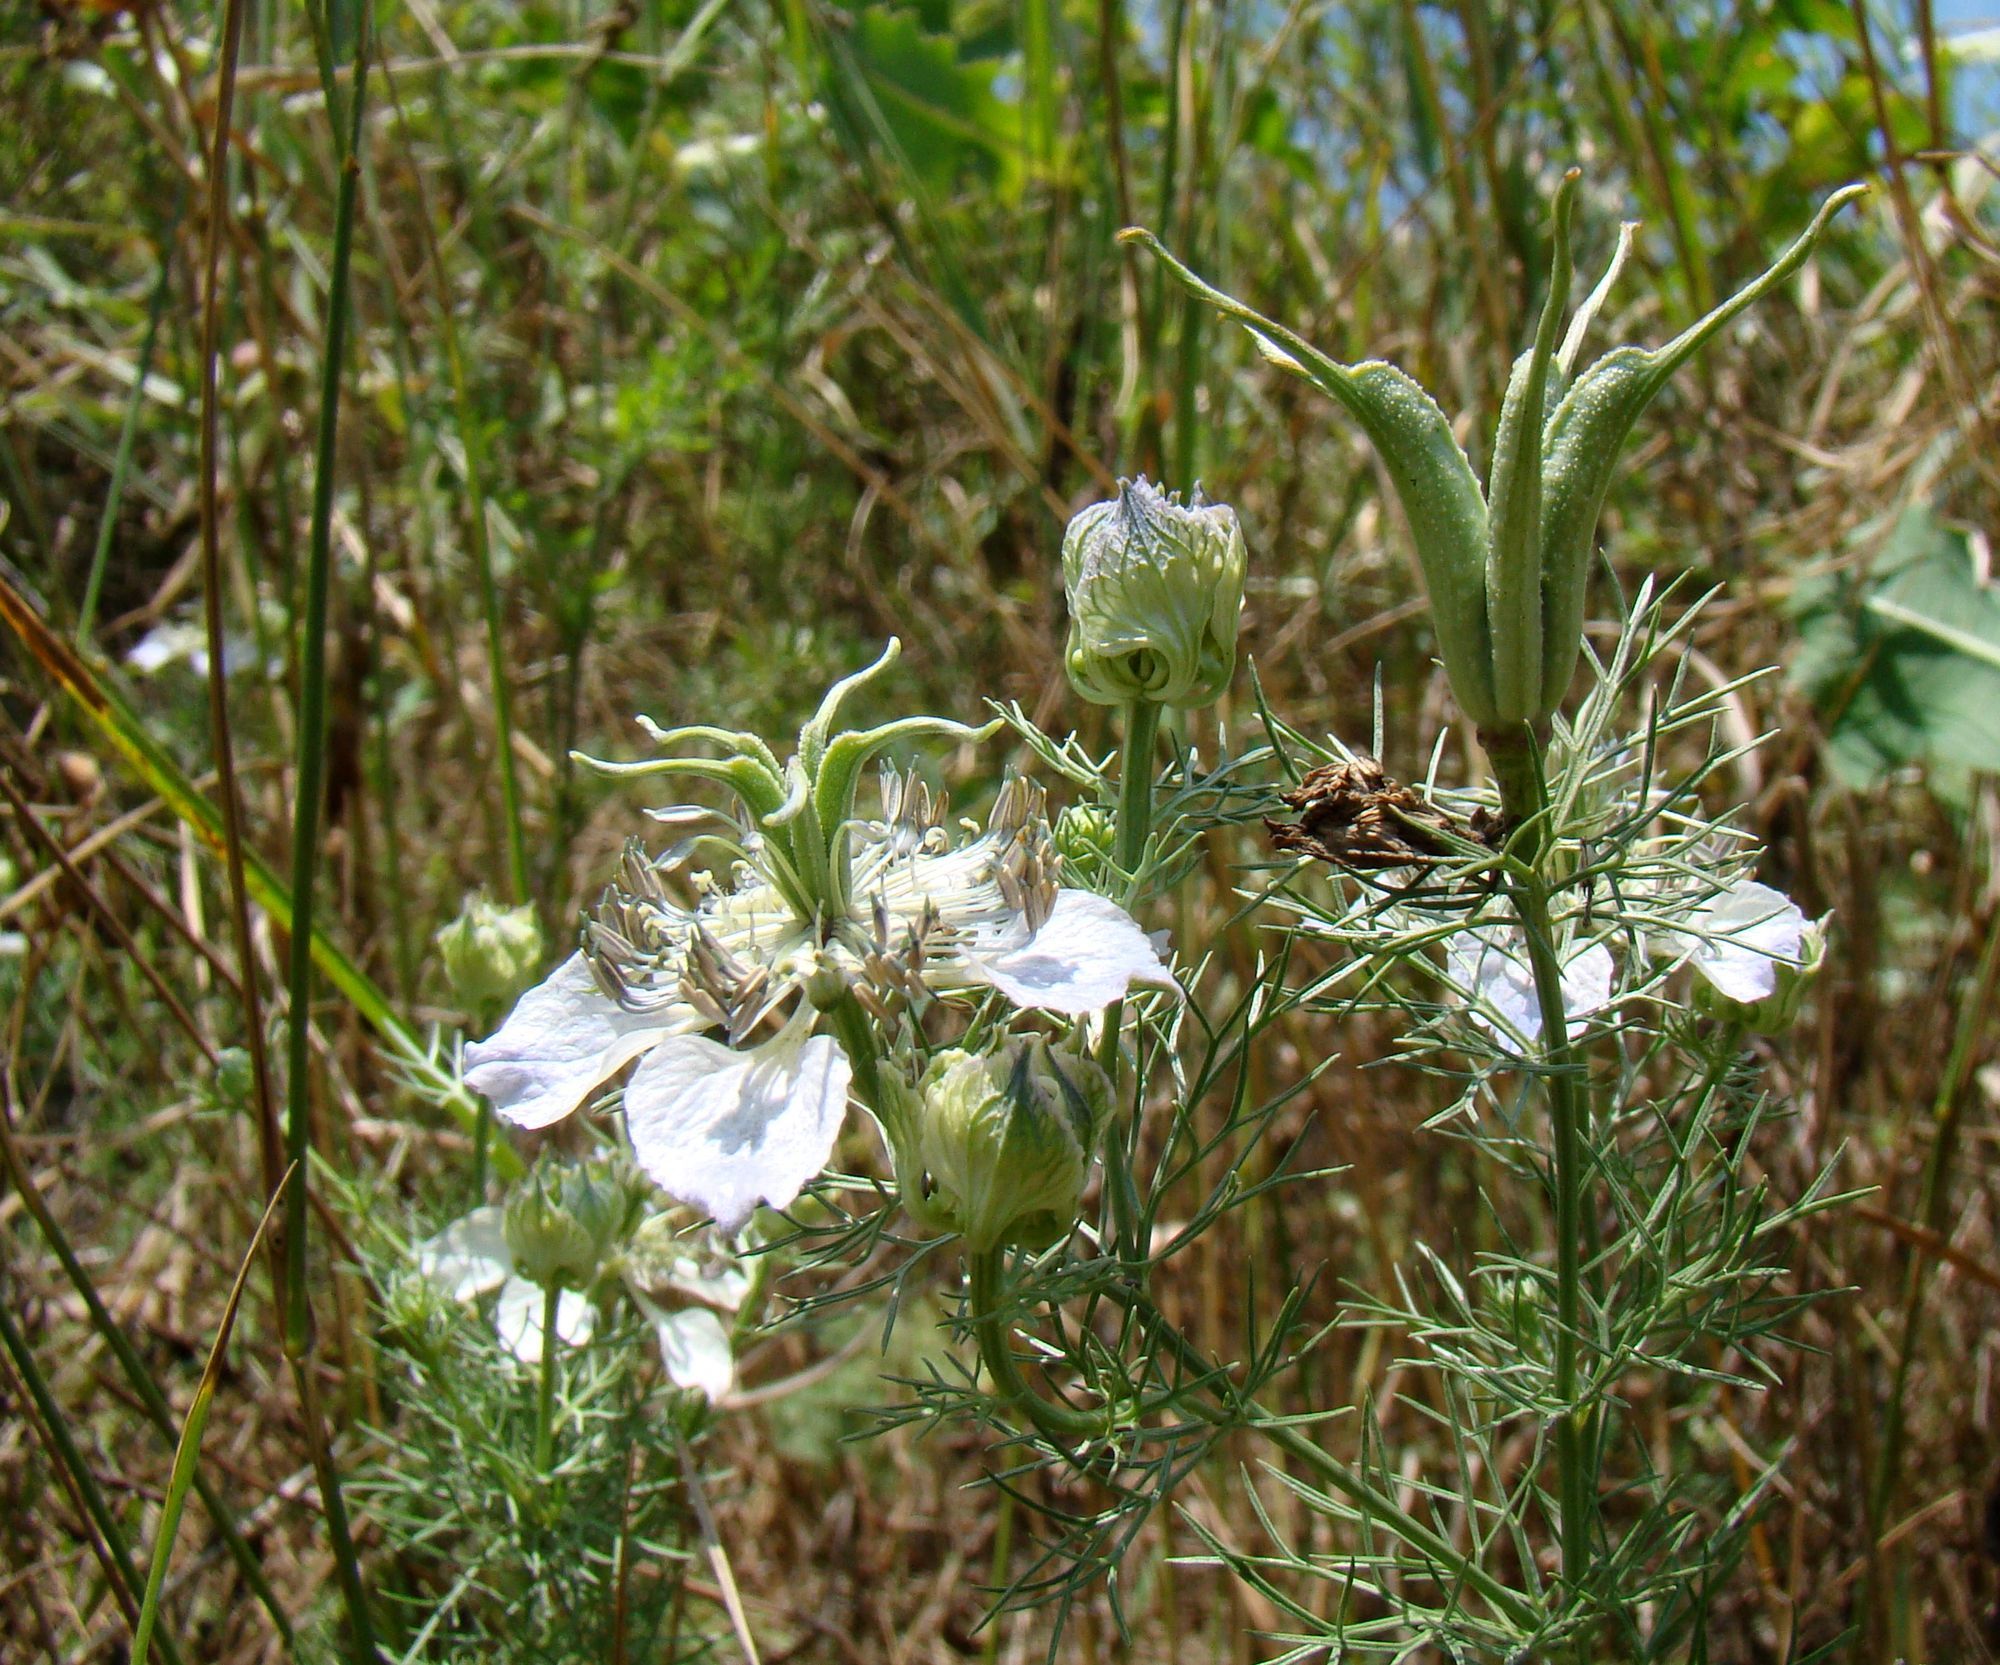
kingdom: Plantae
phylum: Tracheophyta
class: Magnoliopsida
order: Ranunculales
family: Ranunculaceae
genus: Nigella
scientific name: Nigella arvensis
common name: Wild fennel-flower
